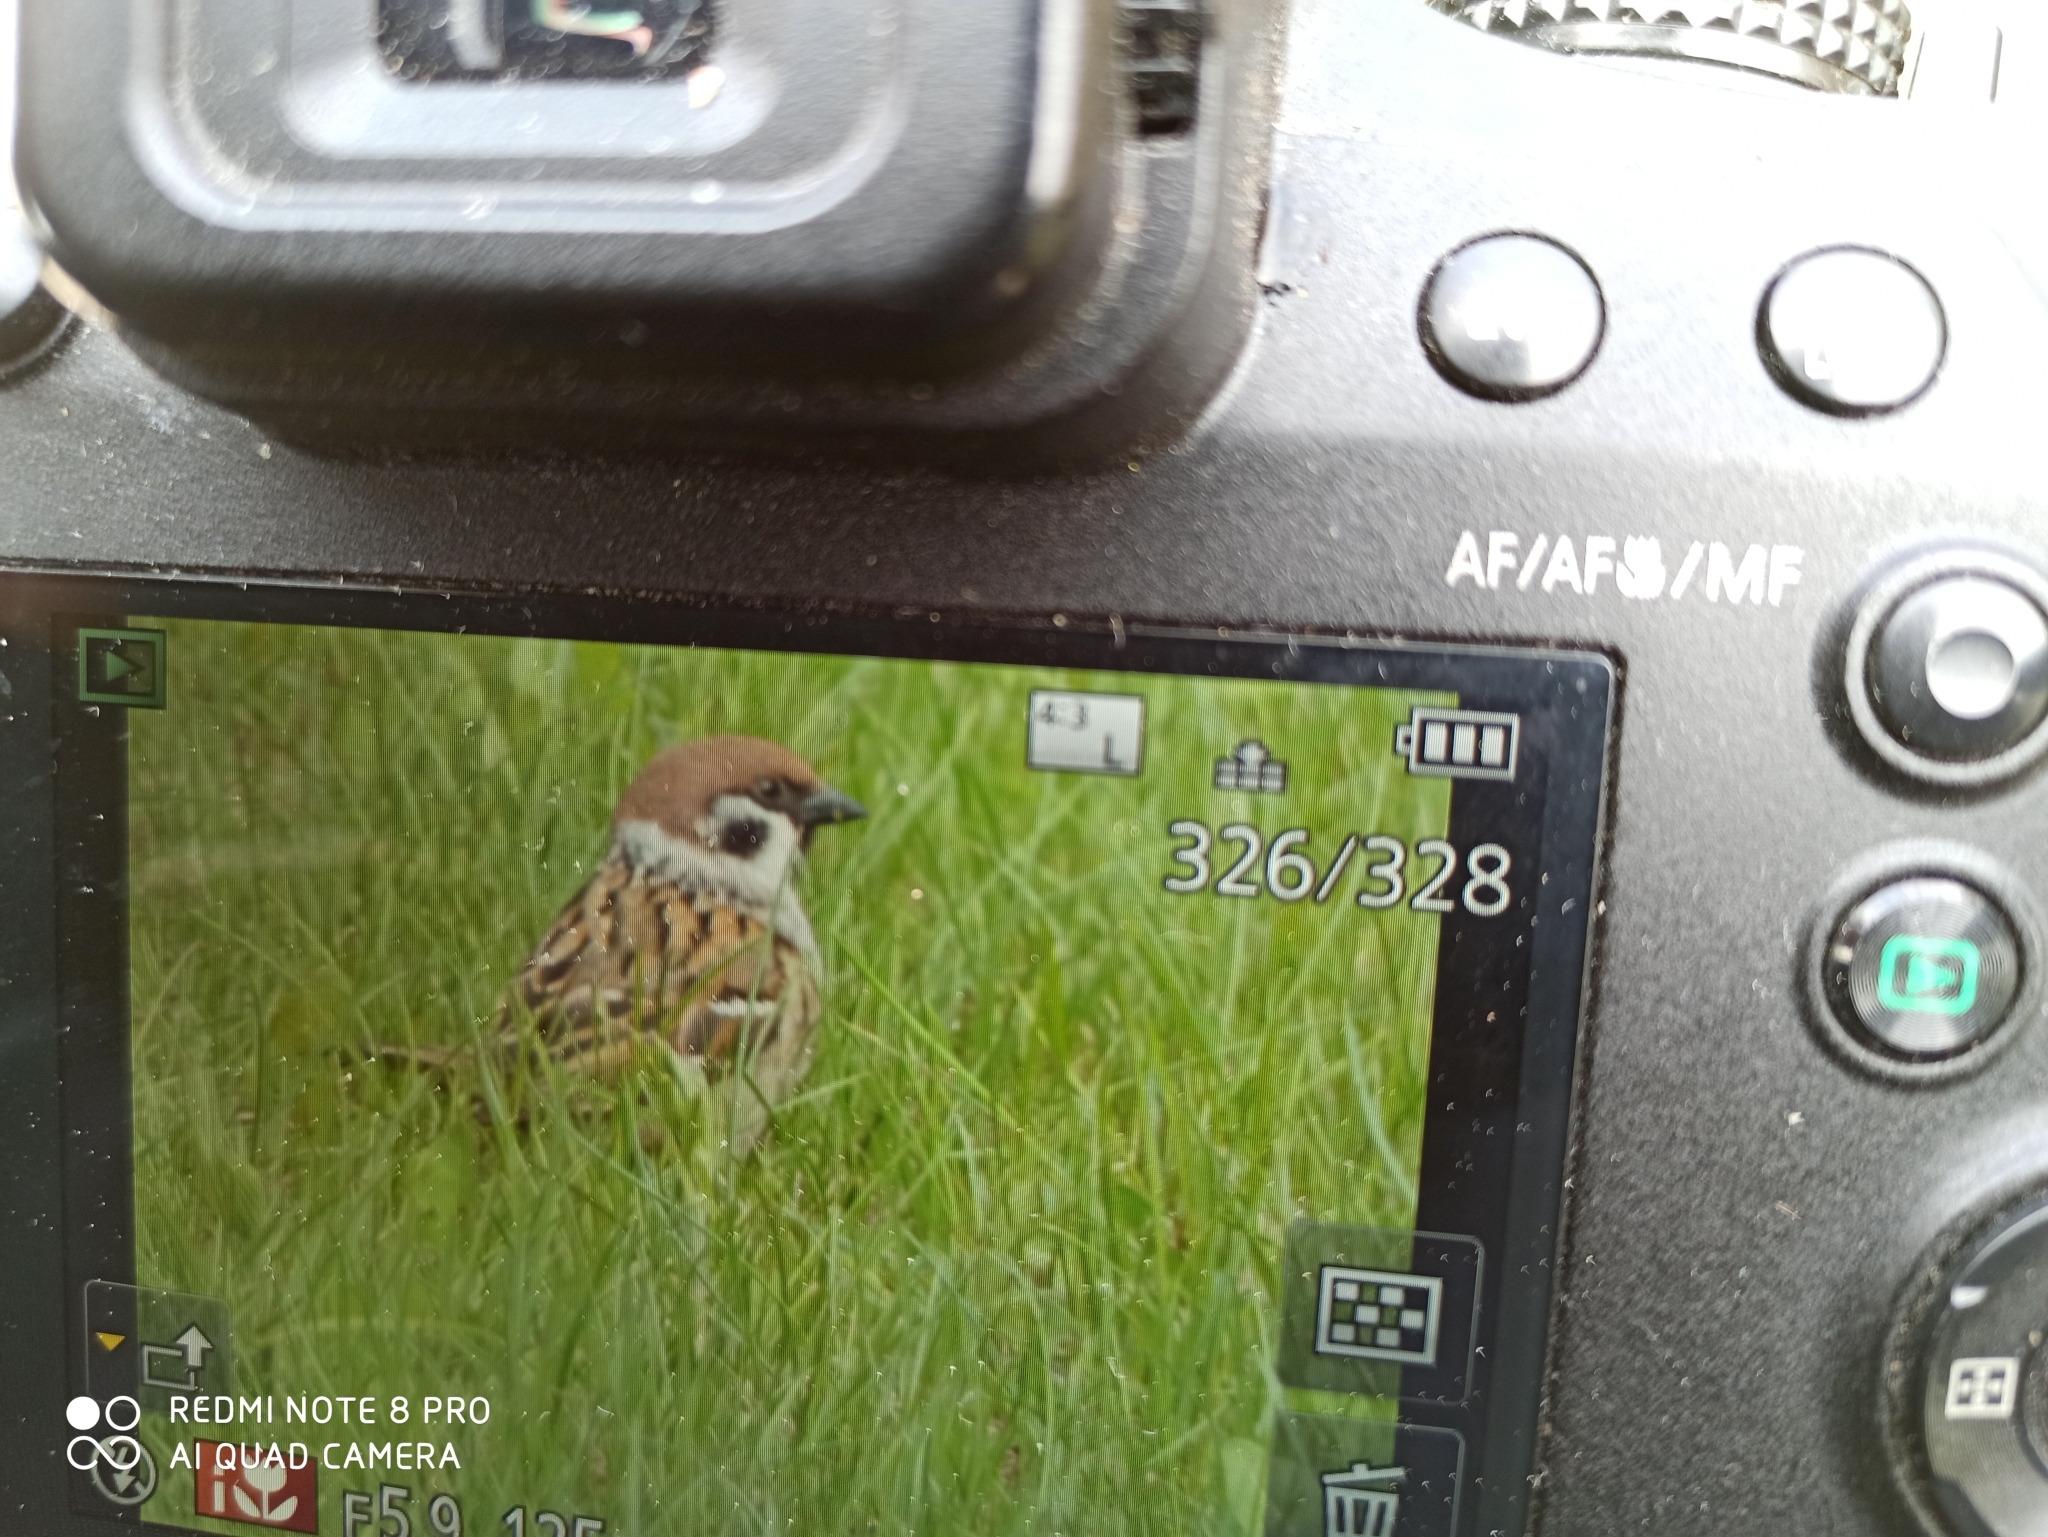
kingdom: Animalia
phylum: Chordata
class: Aves
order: Passeriformes
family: Passeridae
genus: Passer
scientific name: Passer montanus
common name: Eurasian tree sparrow
